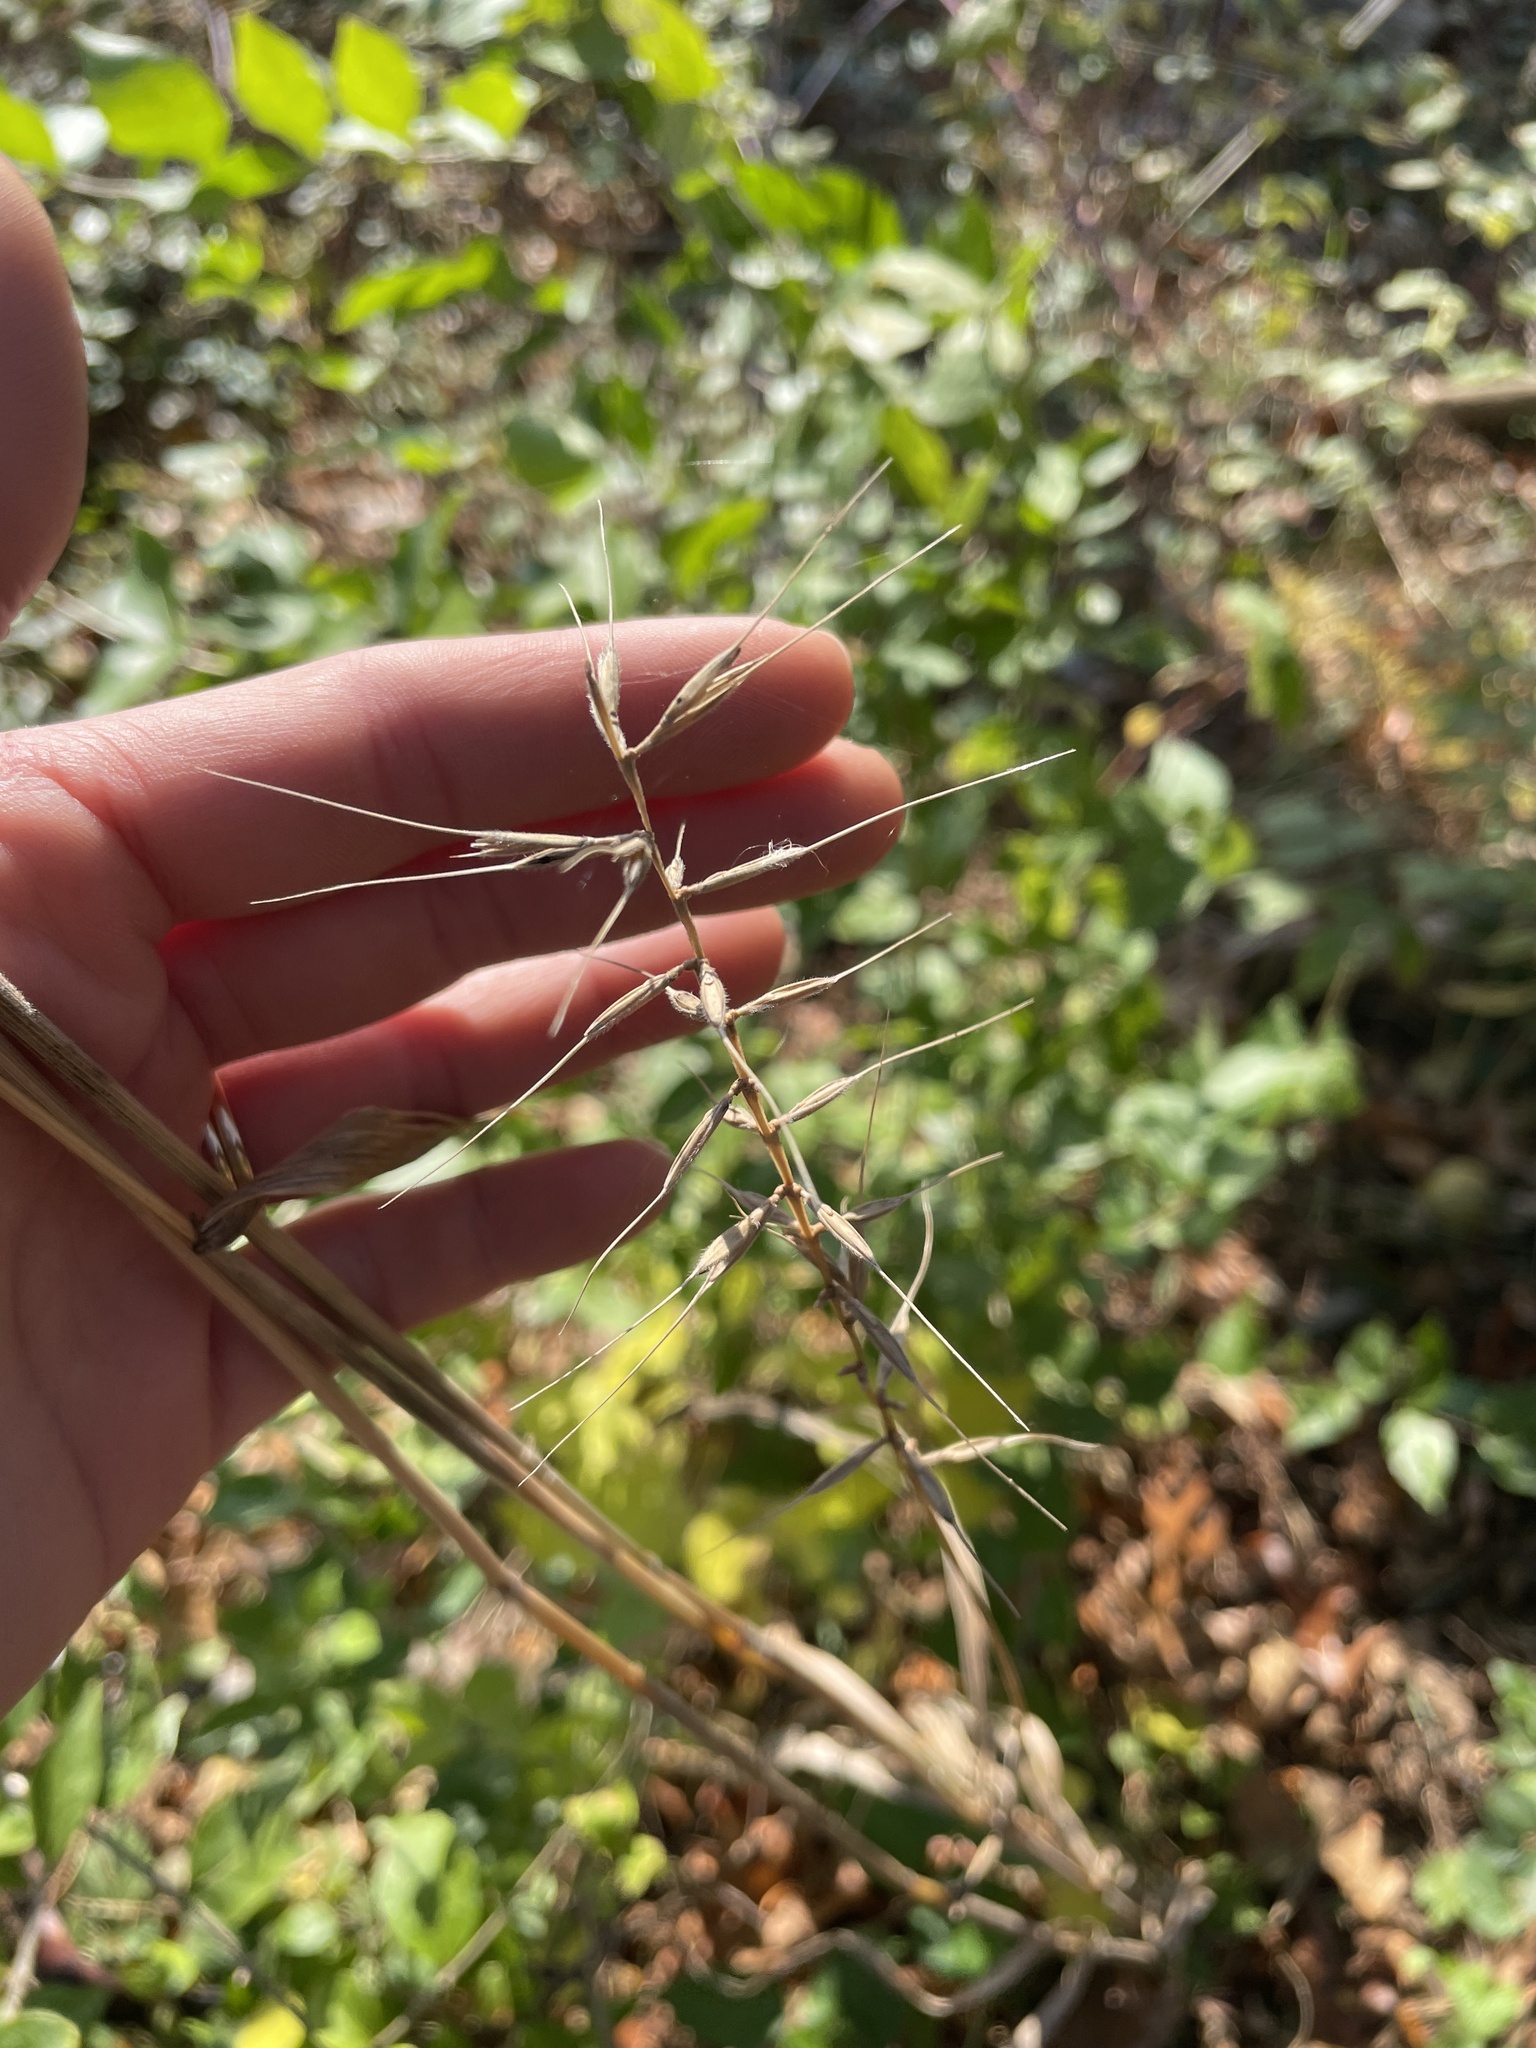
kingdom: Plantae
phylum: Tracheophyta
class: Liliopsida
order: Poales
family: Poaceae
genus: Elymus
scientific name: Elymus hystrix
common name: Bottlebrush grass
